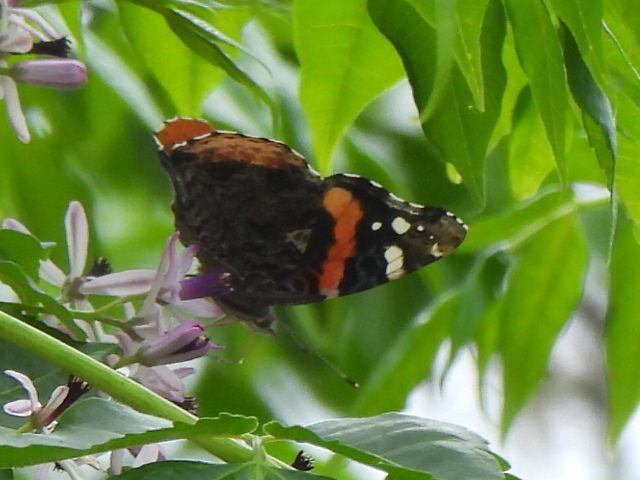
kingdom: Animalia
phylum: Arthropoda
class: Insecta
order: Lepidoptera
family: Nymphalidae
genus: Vanessa
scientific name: Vanessa atalanta
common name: Red admiral
